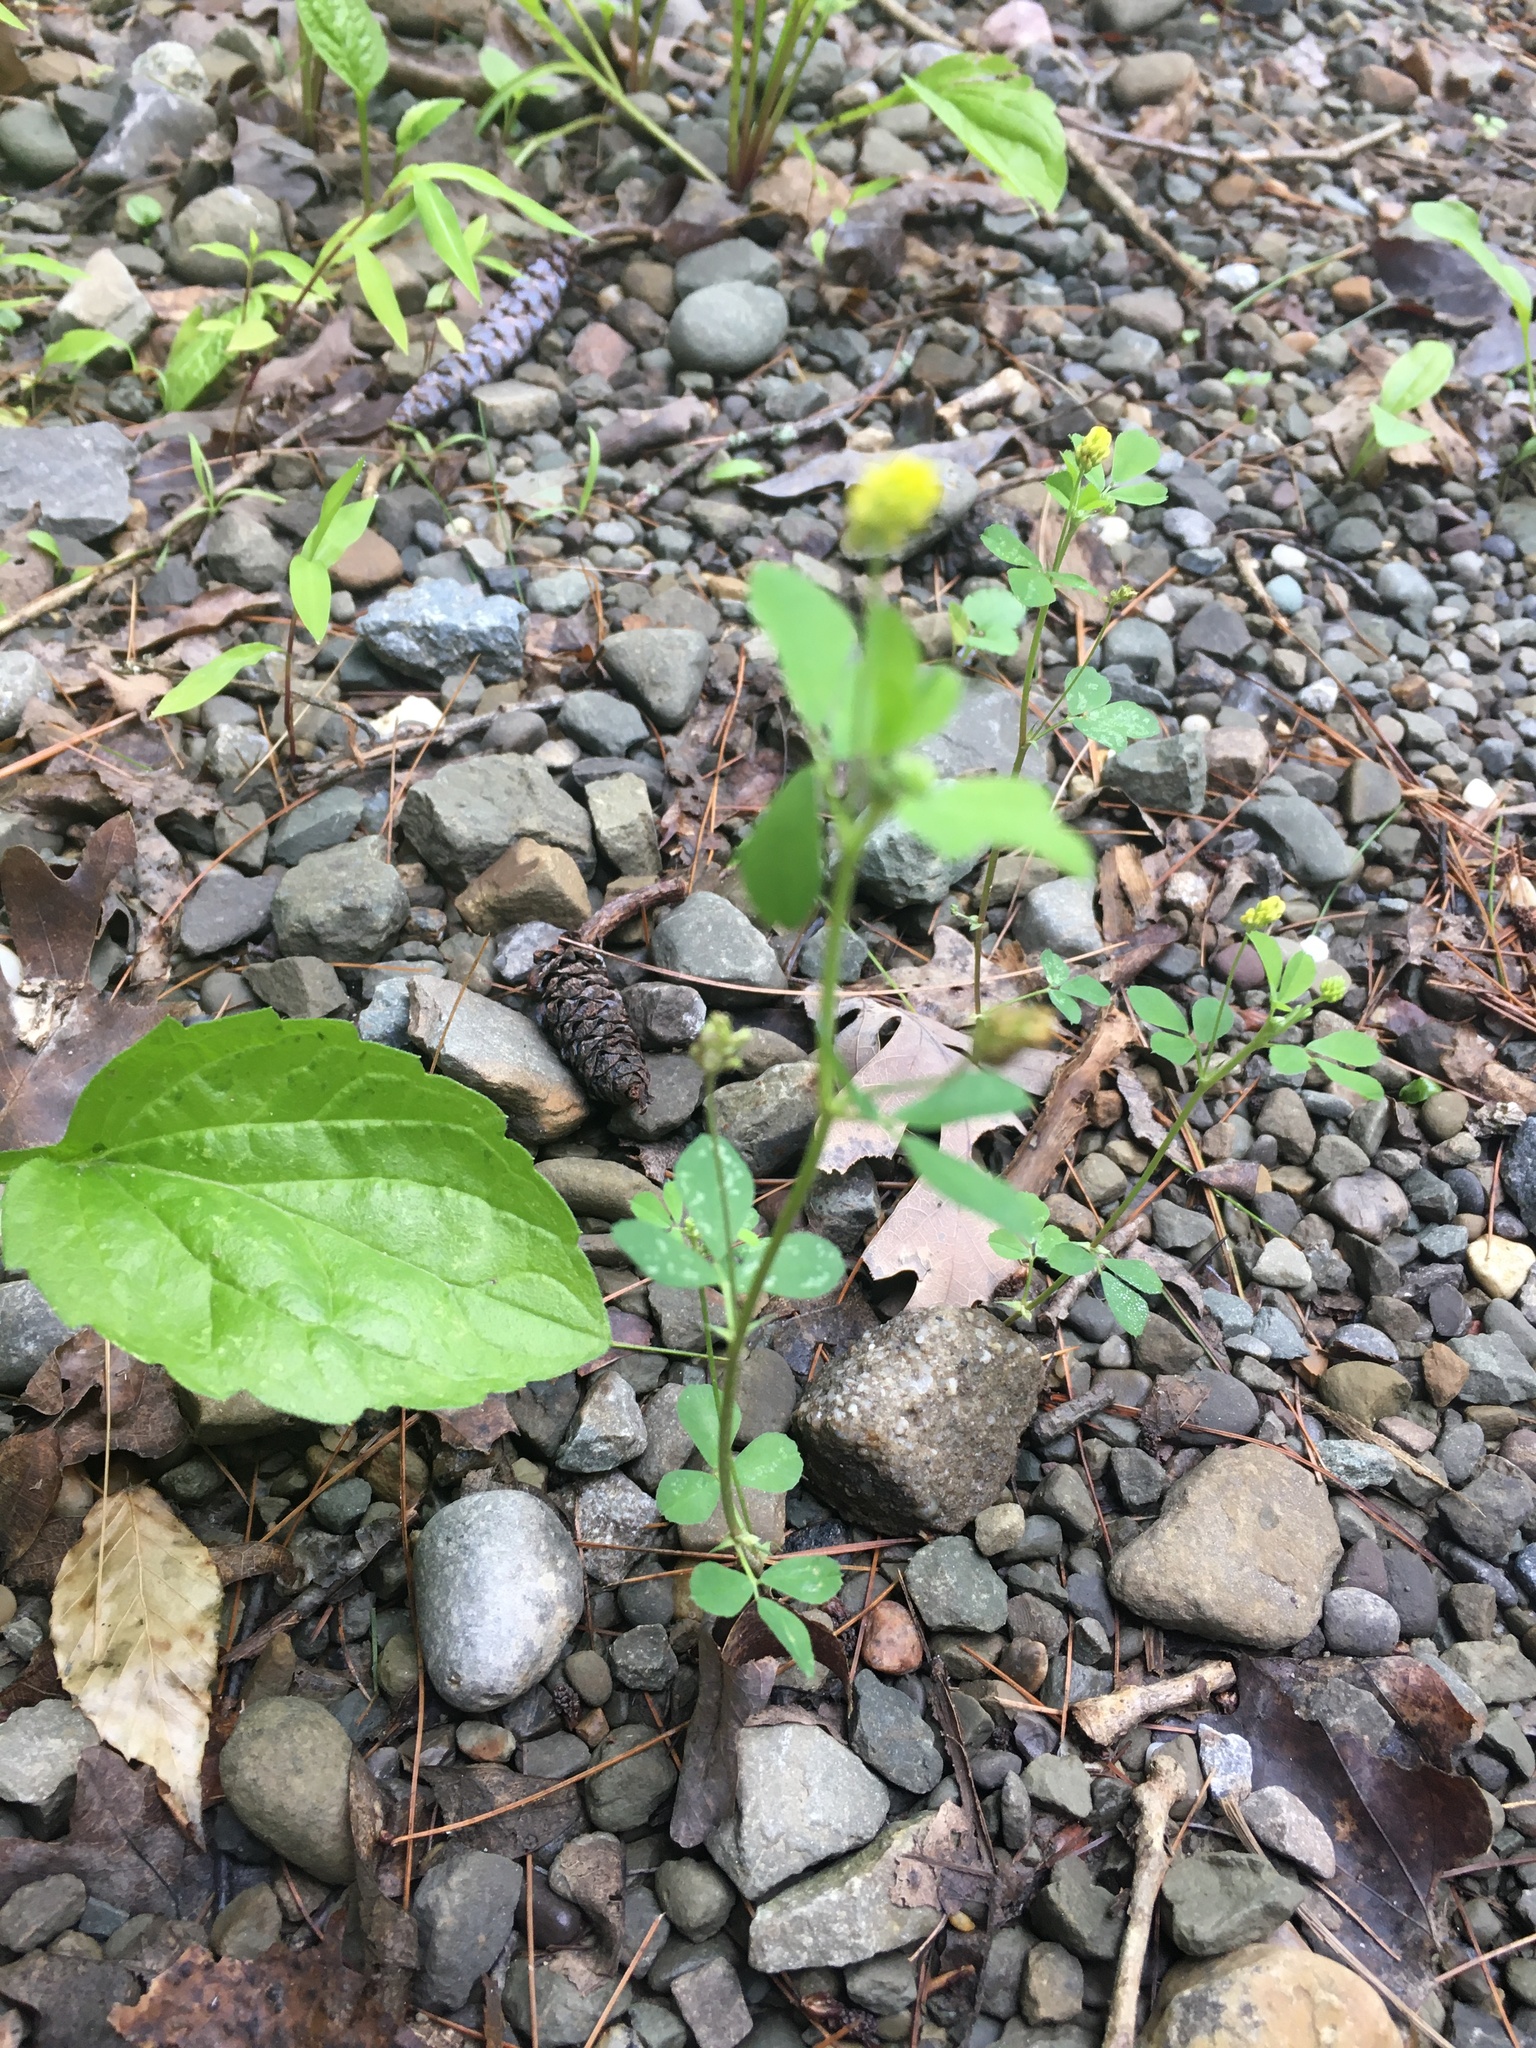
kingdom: Plantae
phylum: Tracheophyta
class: Magnoliopsida
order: Fabales
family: Fabaceae
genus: Medicago
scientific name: Medicago lupulina
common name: Black medick
